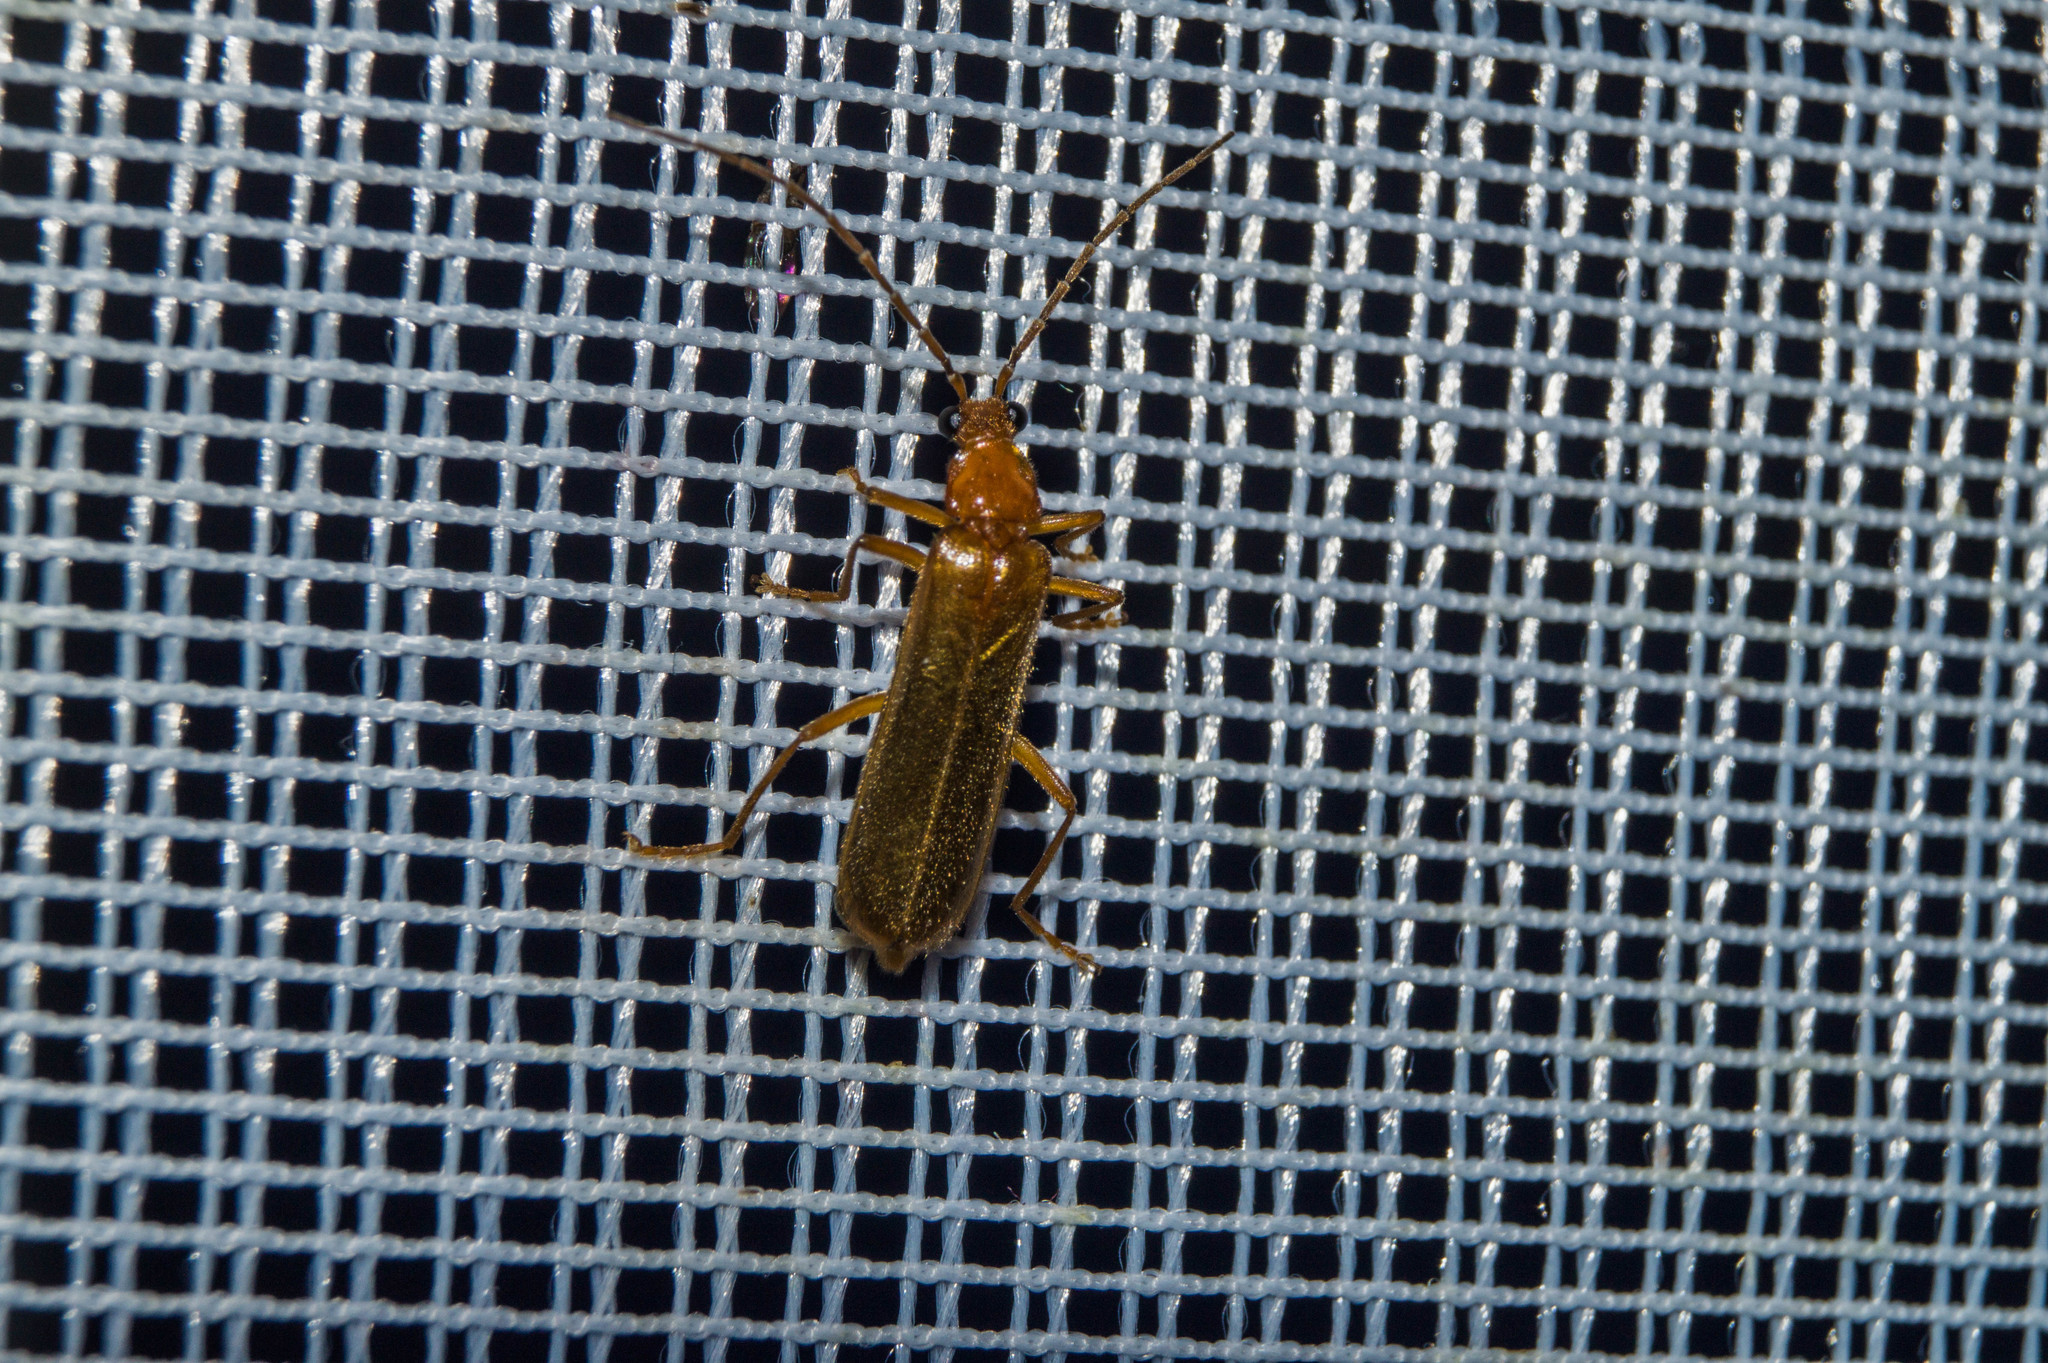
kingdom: Animalia
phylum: Arthropoda
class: Insecta
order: Coleoptera
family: Cantharidae
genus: Rhagonycha
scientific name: Rhagonycha translucida
